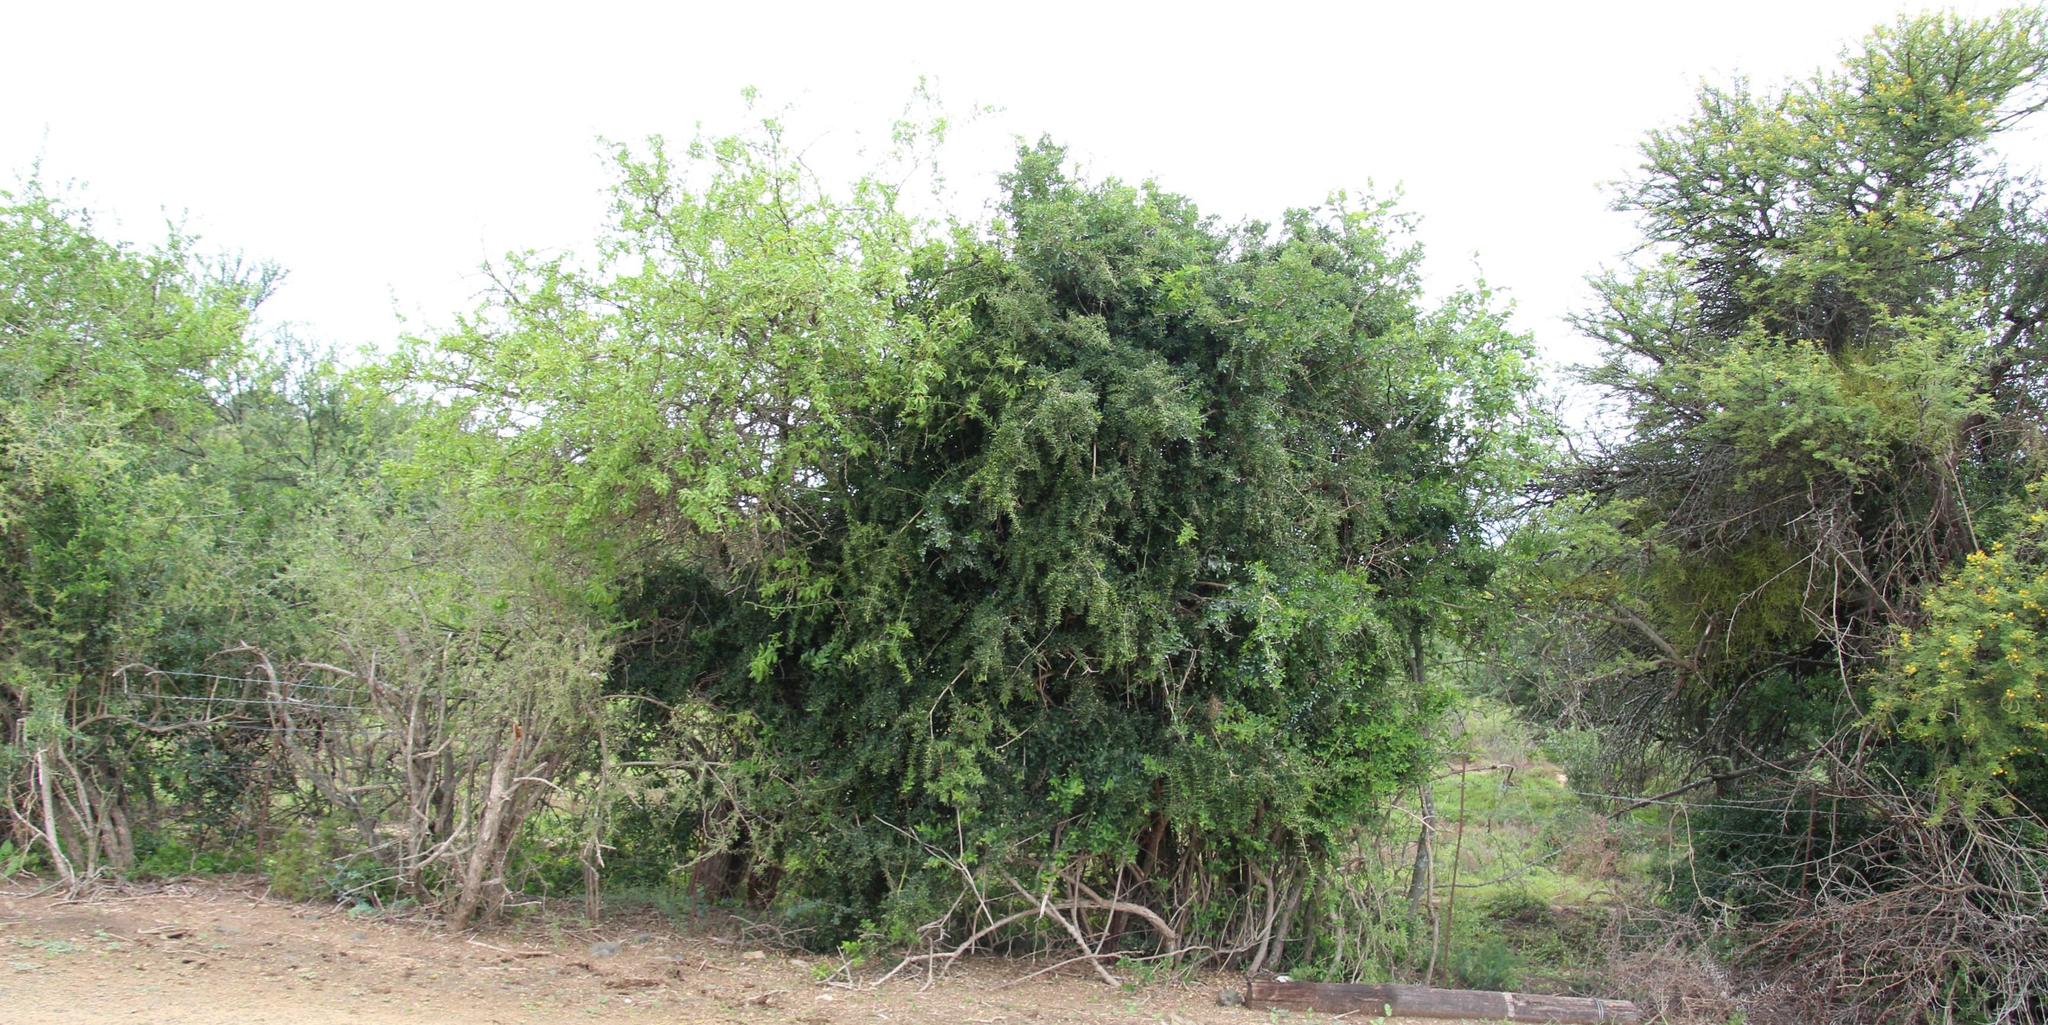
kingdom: Plantae
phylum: Tracheophyta
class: Magnoliopsida
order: Sapindales
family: Anacardiaceae
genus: Searsia
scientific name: Searsia longispina
